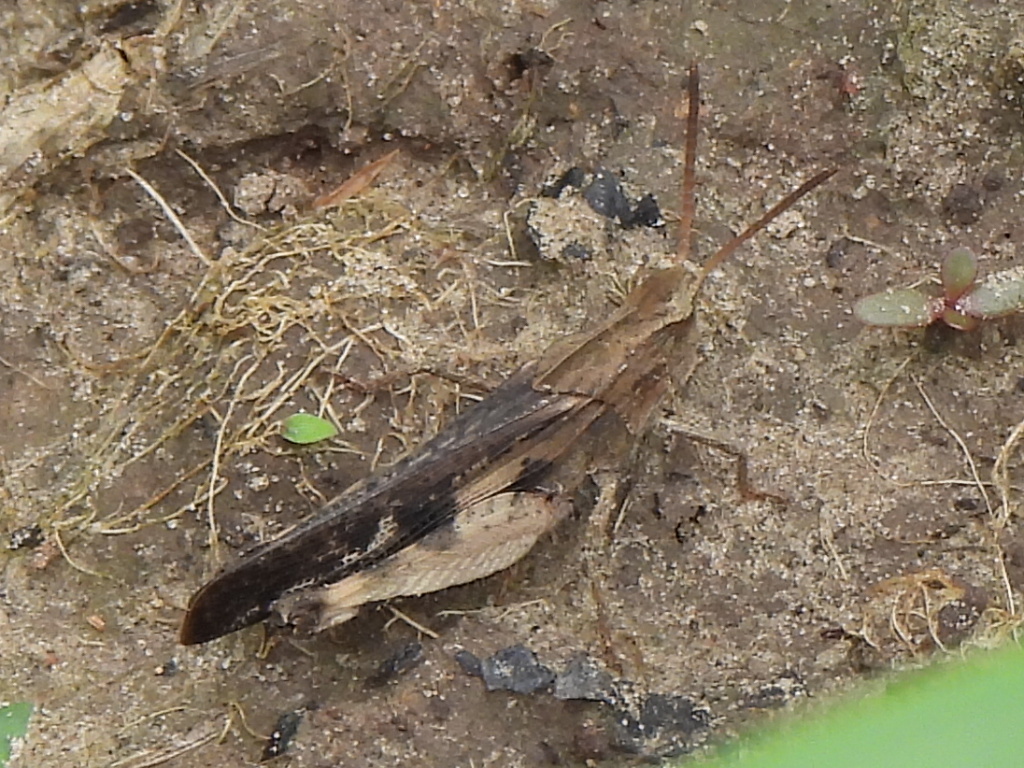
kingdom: Animalia
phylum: Arthropoda
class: Insecta
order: Orthoptera
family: Acrididae
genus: Chortophaga
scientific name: Chortophaga viridifasciata
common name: Green-striped grasshopper
